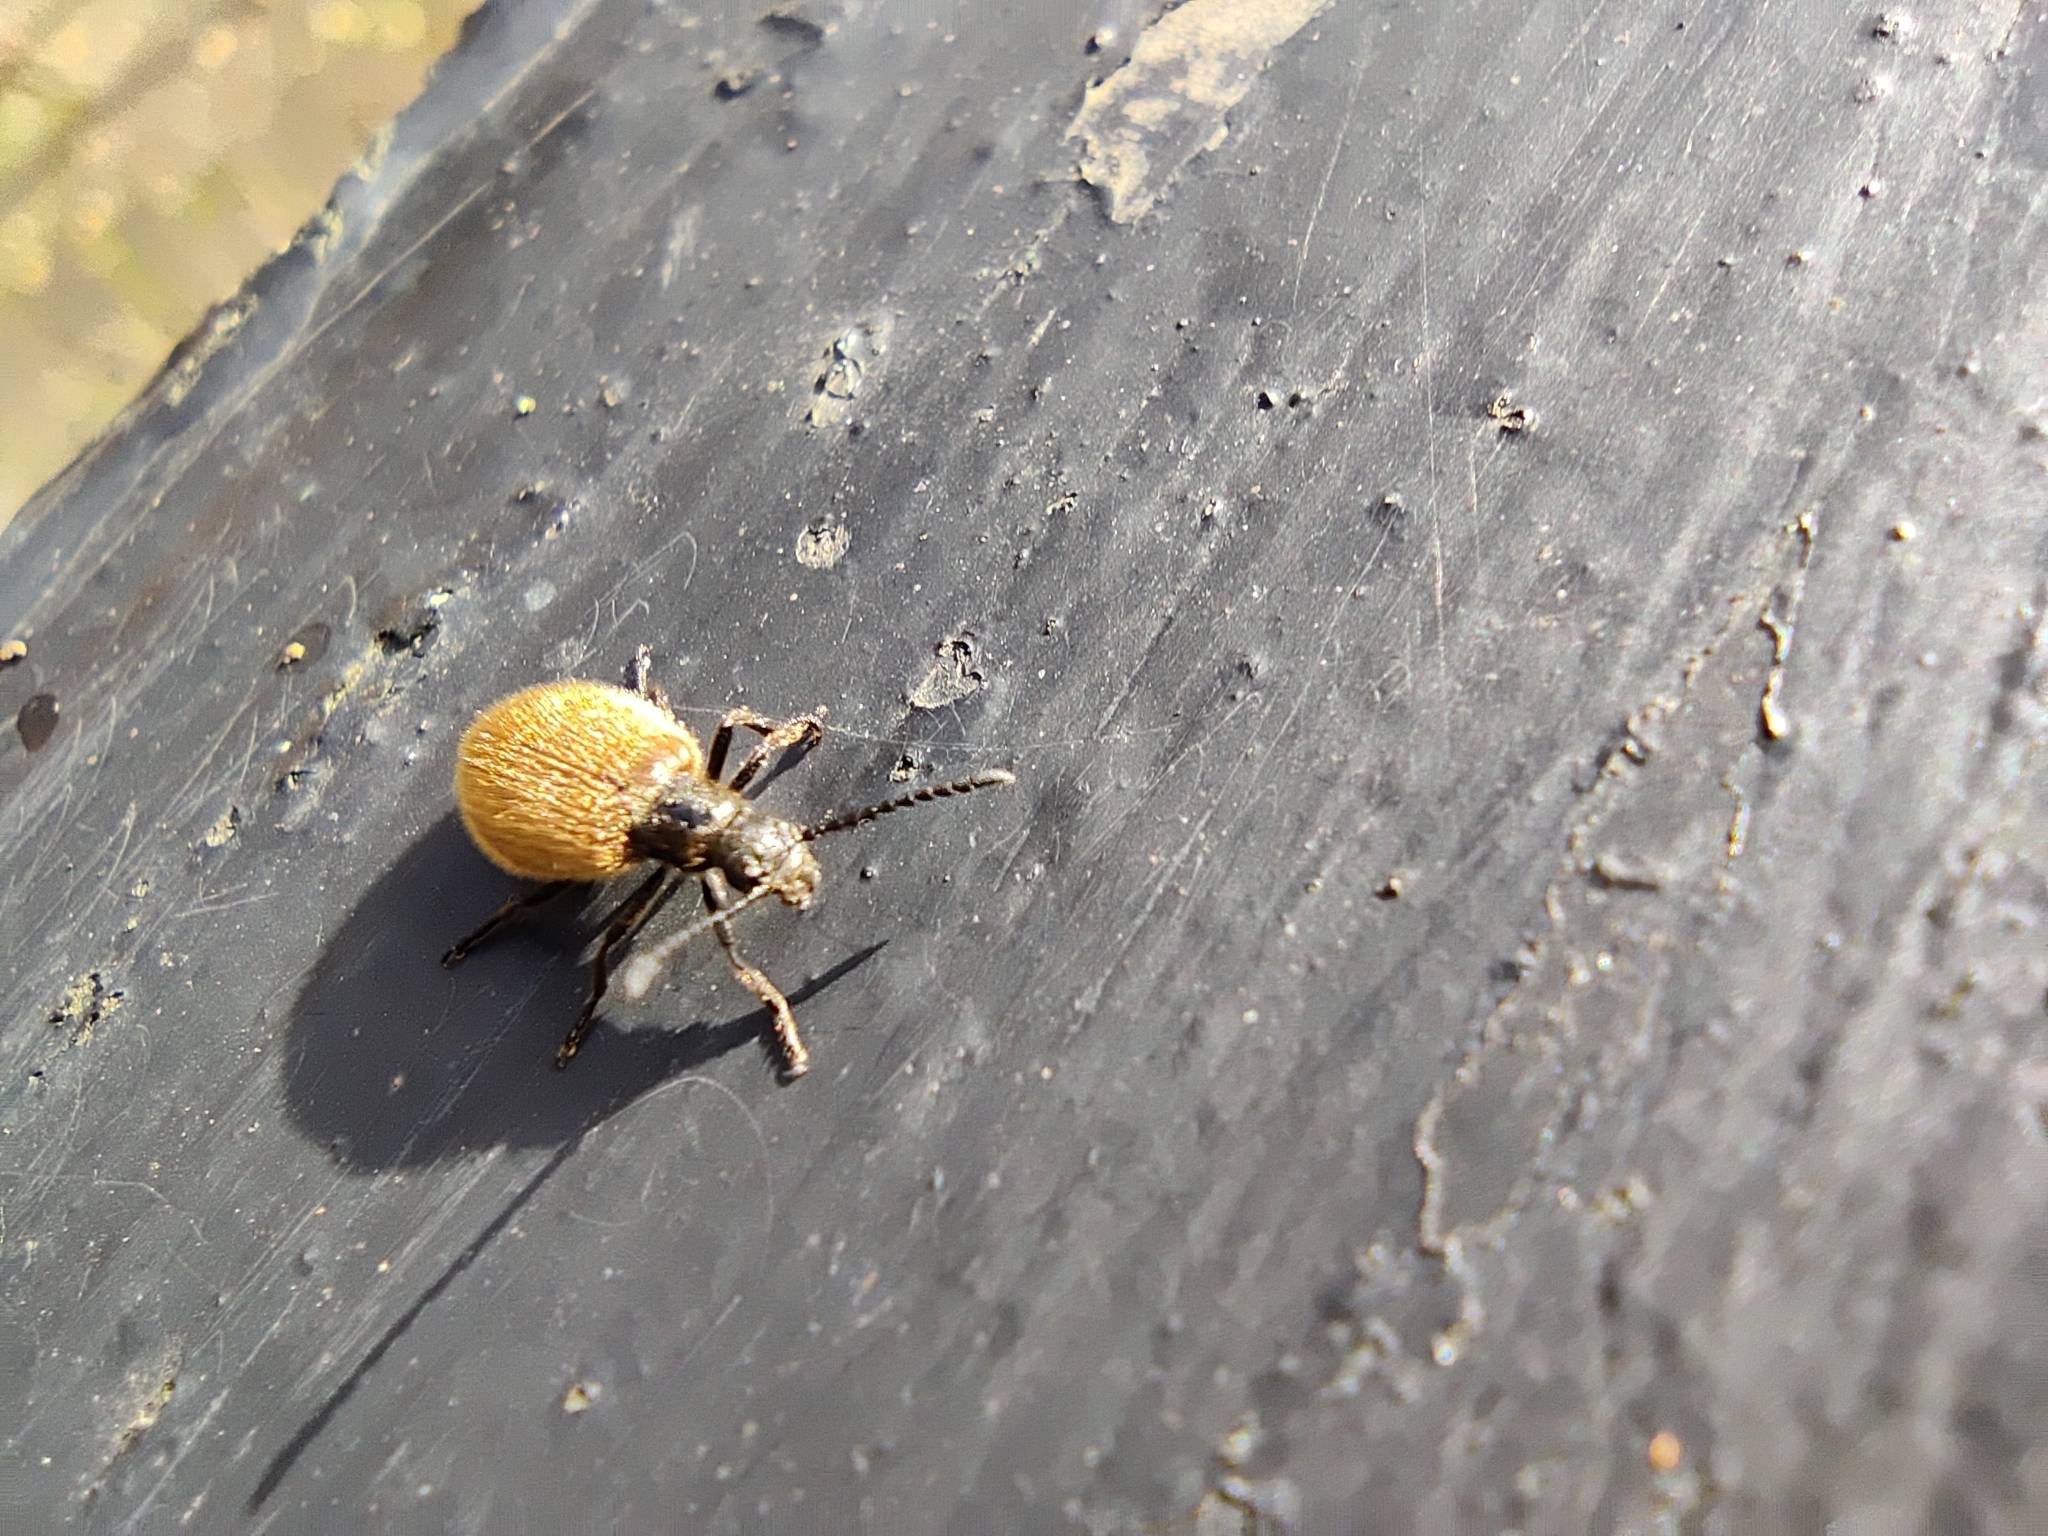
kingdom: Animalia
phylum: Arthropoda
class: Insecta
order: Coleoptera
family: Tenebrionidae
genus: Lagria
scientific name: Lagria hirta
